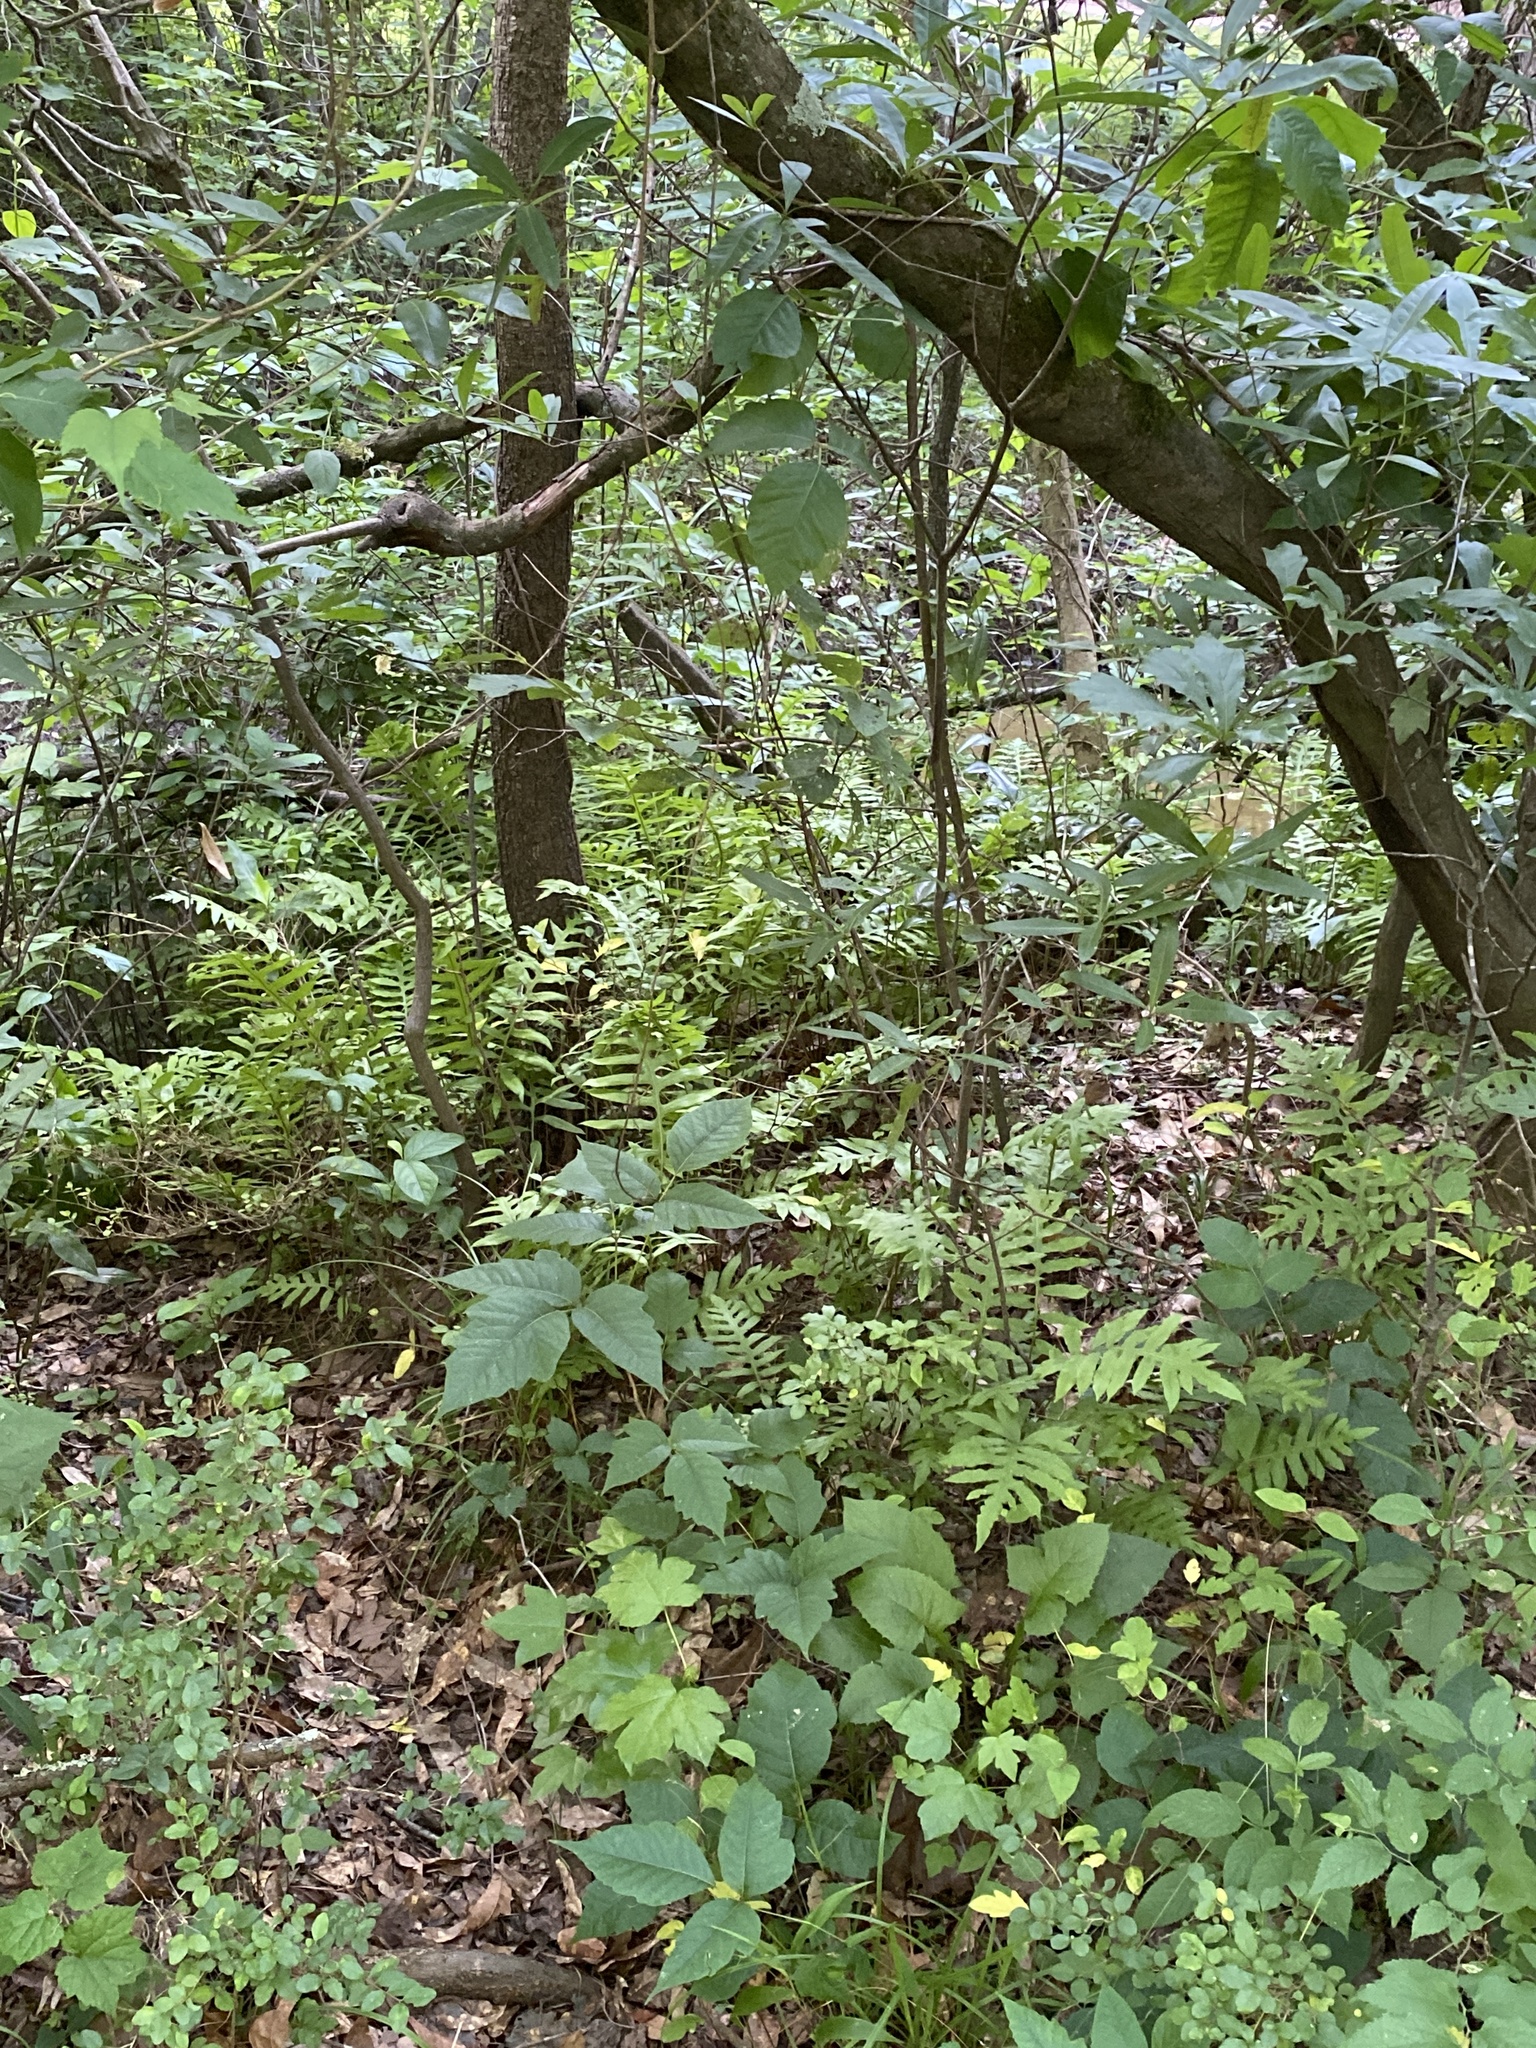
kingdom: Plantae
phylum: Tracheophyta
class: Polypodiopsida
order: Polypodiales
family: Blechnaceae
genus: Lorinseria
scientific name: Lorinseria areolata
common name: Dwarf chain fern
